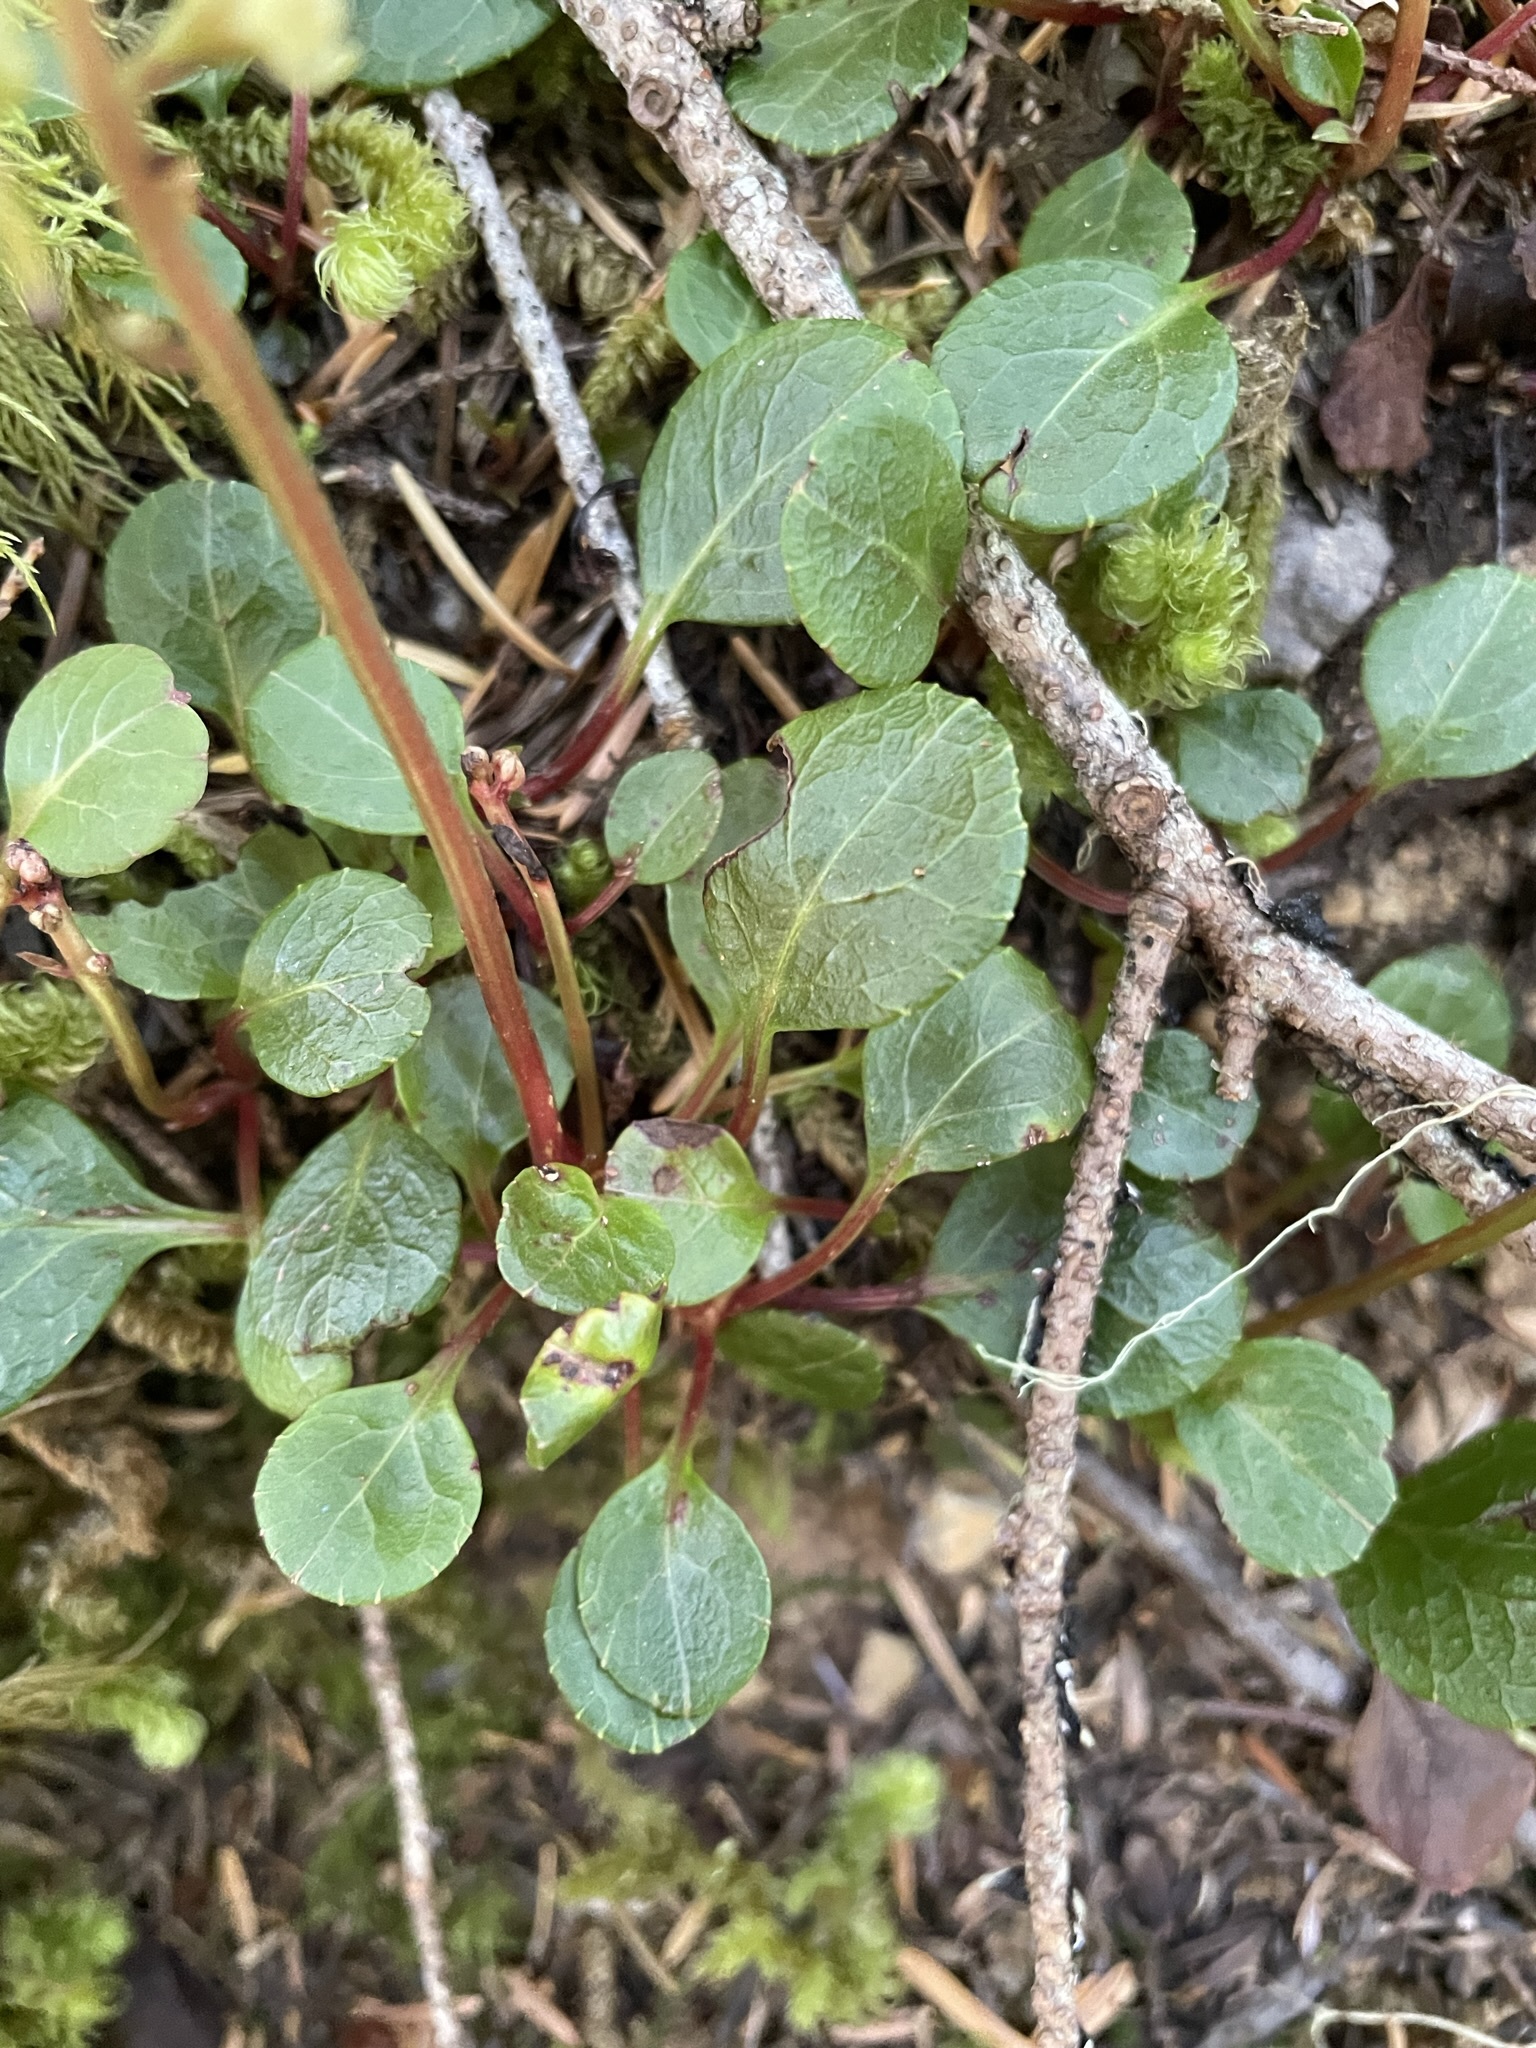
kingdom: Plantae
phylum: Tracheophyta
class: Magnoliopsida
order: Ericales
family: Ericaceae
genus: Pyrola
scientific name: Pyrola chlorantha
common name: Green wintergreen
